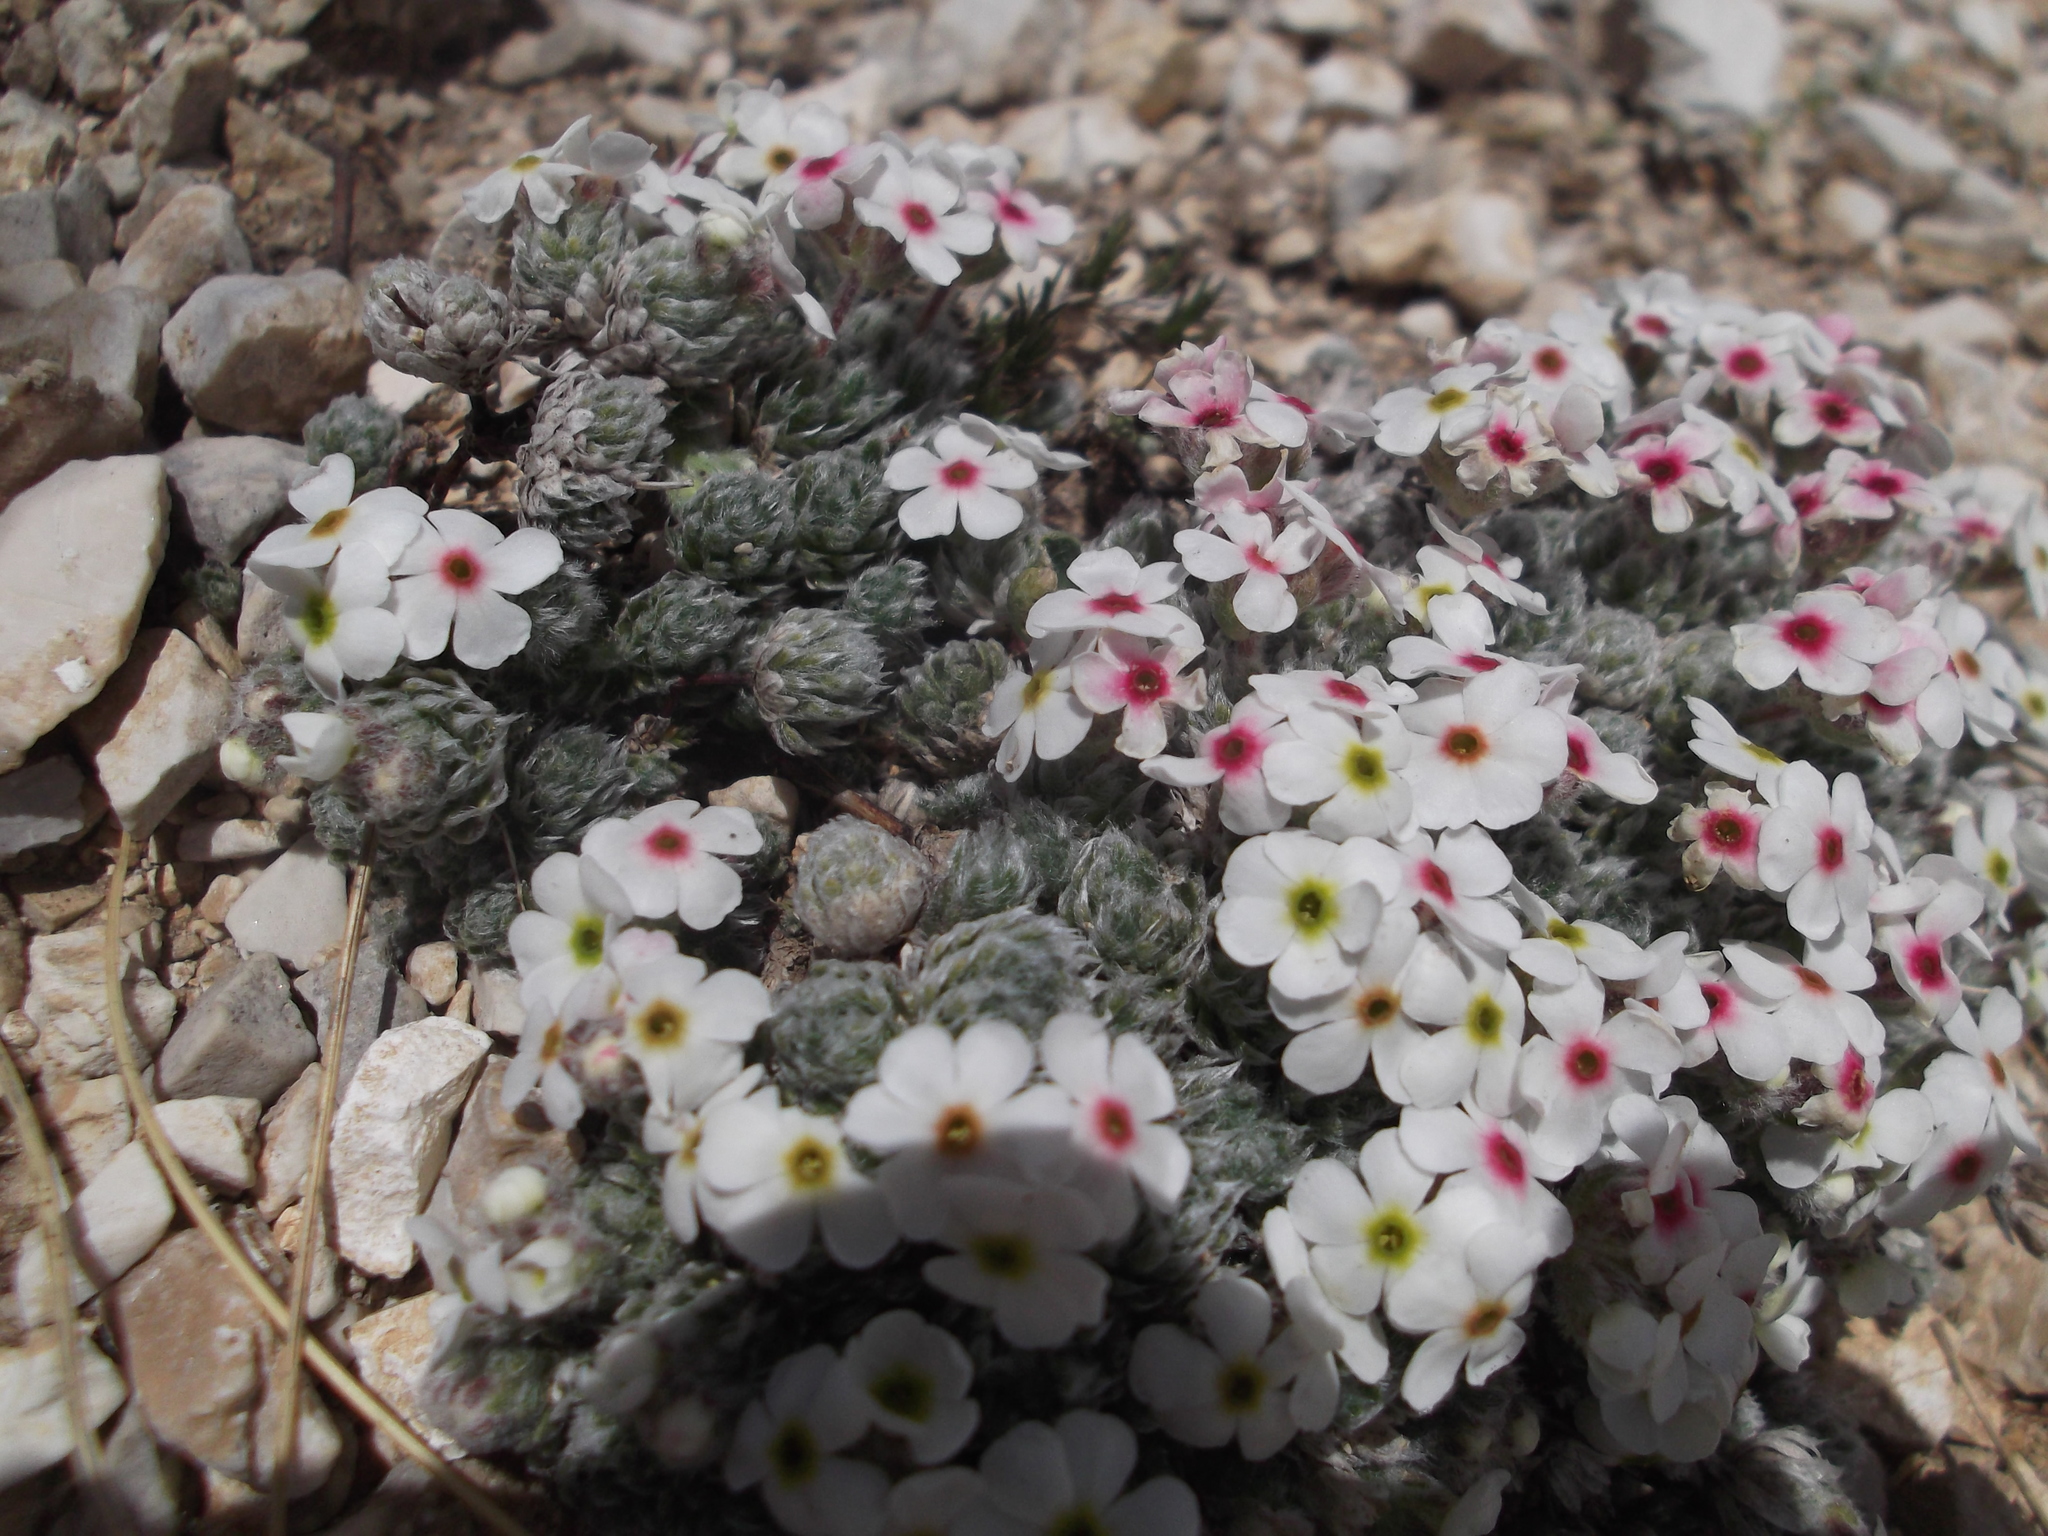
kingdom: Plantae
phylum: Tracheophyta
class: Magnoliopsida
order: Ericales
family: Primulaceae
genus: Androsace
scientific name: Androsace villosa
